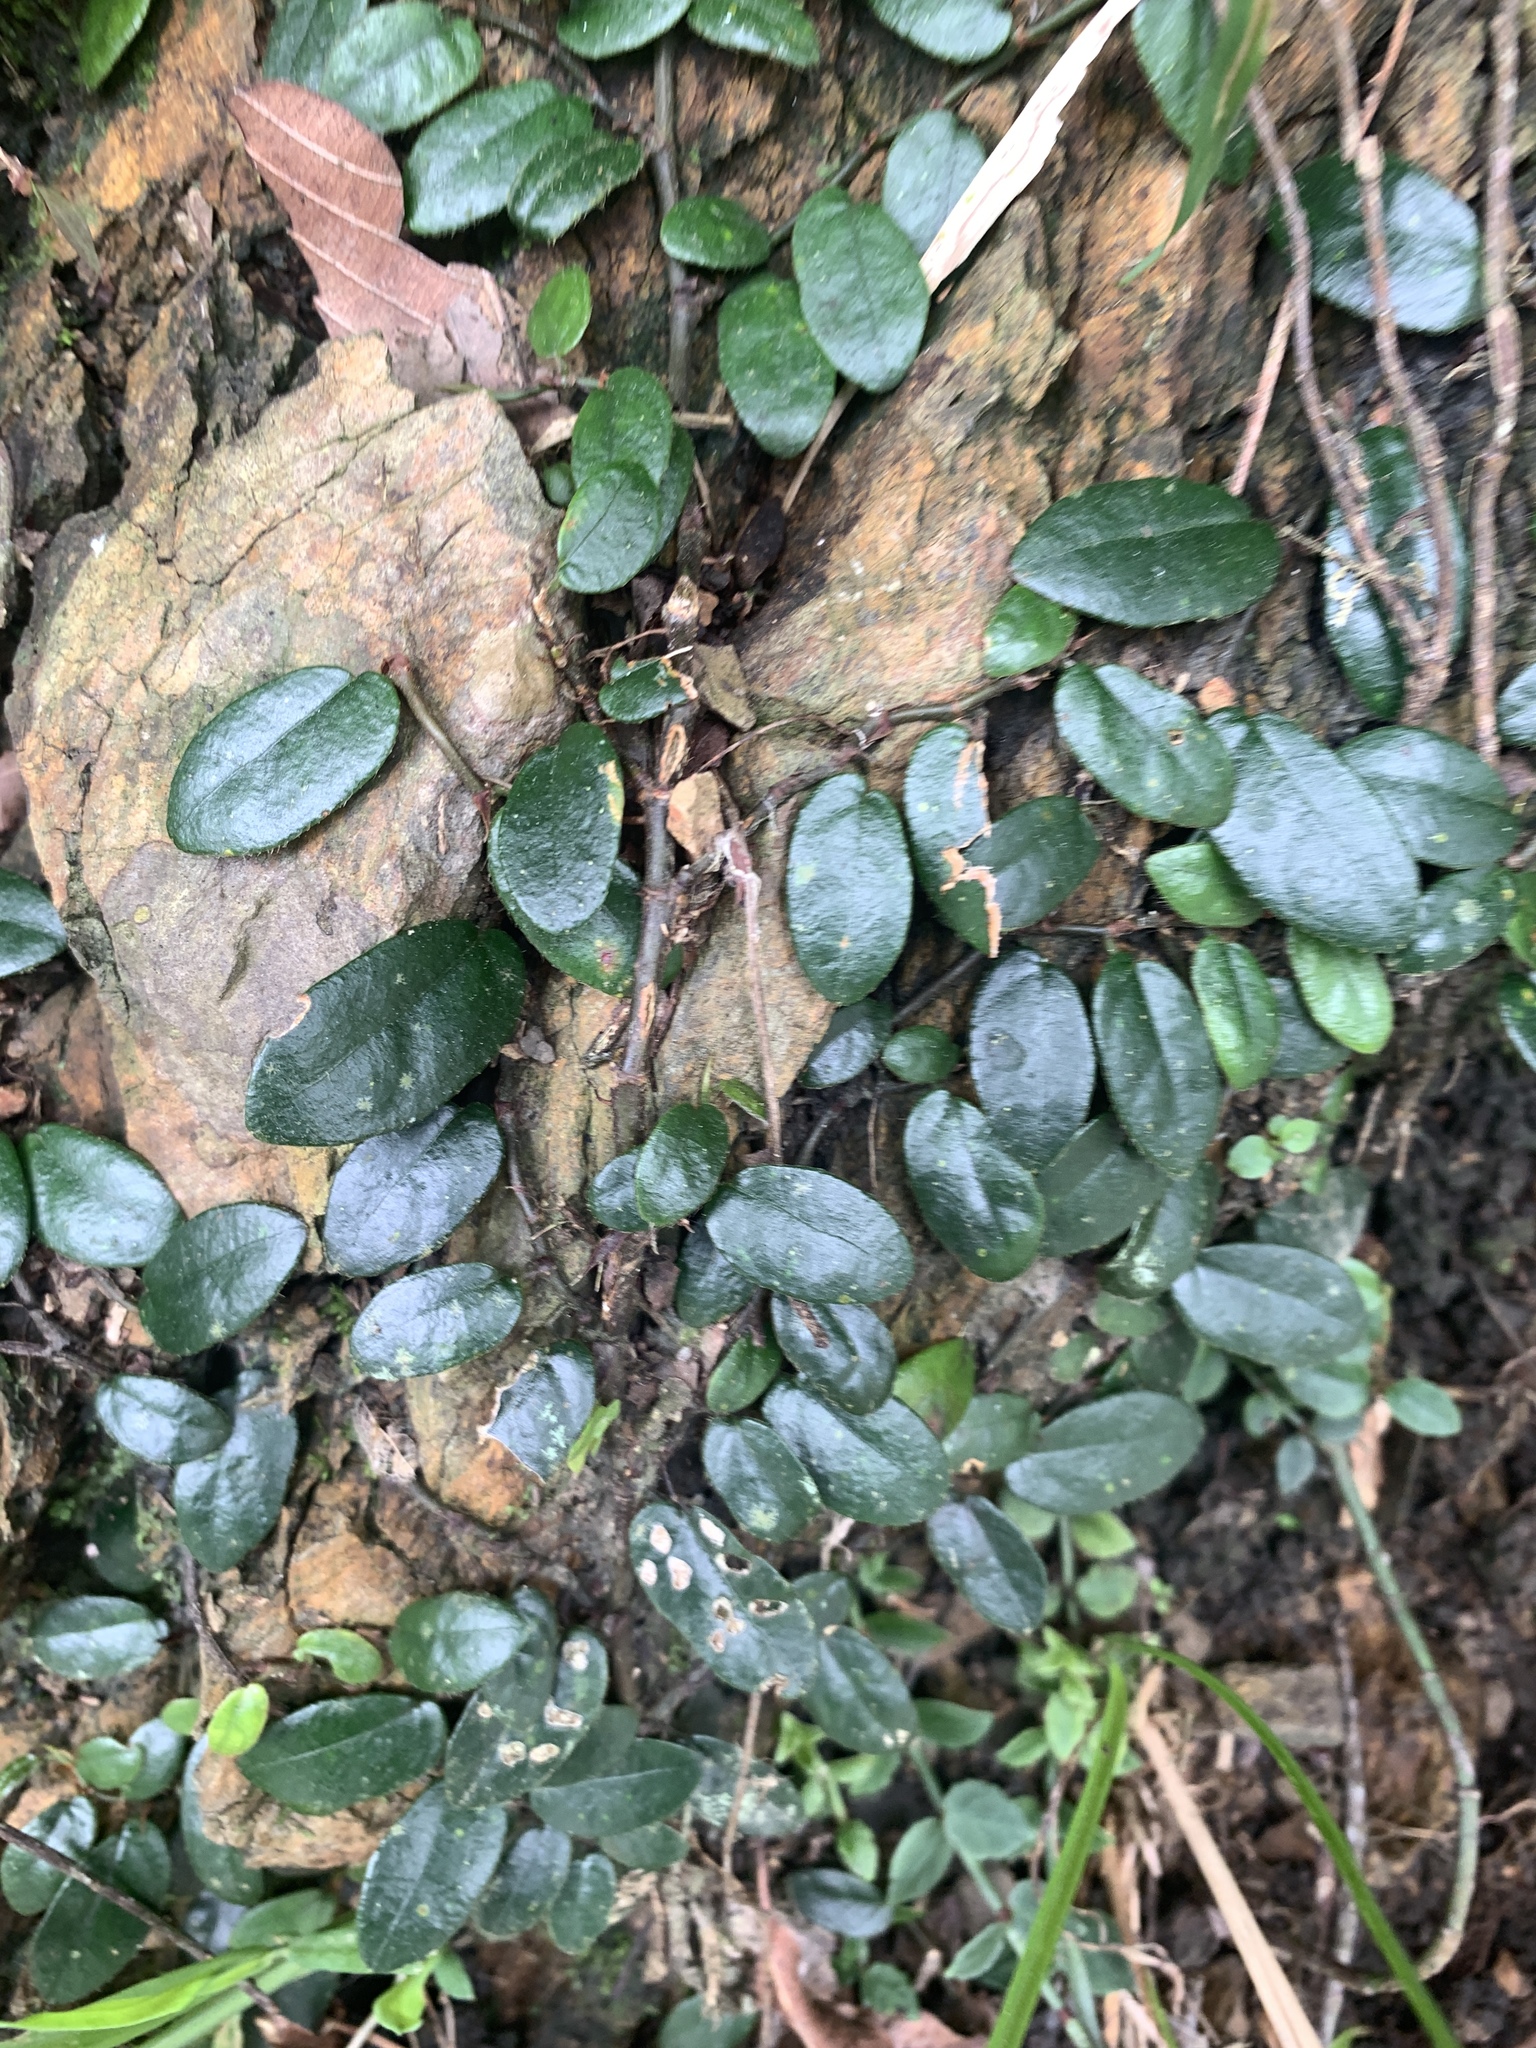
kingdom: Plantae
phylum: Tracheophyta
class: Magnoliopsida
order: Rosales
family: Moraceae
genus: Ficus
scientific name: Ficus punctata
